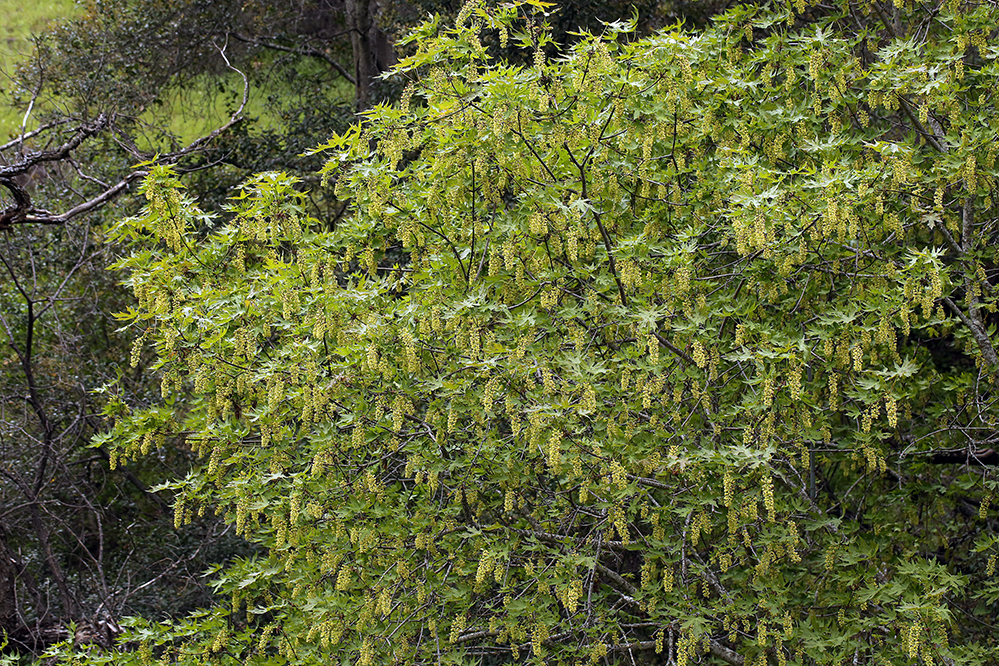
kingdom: Plantae
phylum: Tracheophyta
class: Magnoliopsida
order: Sapindales
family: Sapindaceae
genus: Acer
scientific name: Acer macrophyllum
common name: Oregon maple
